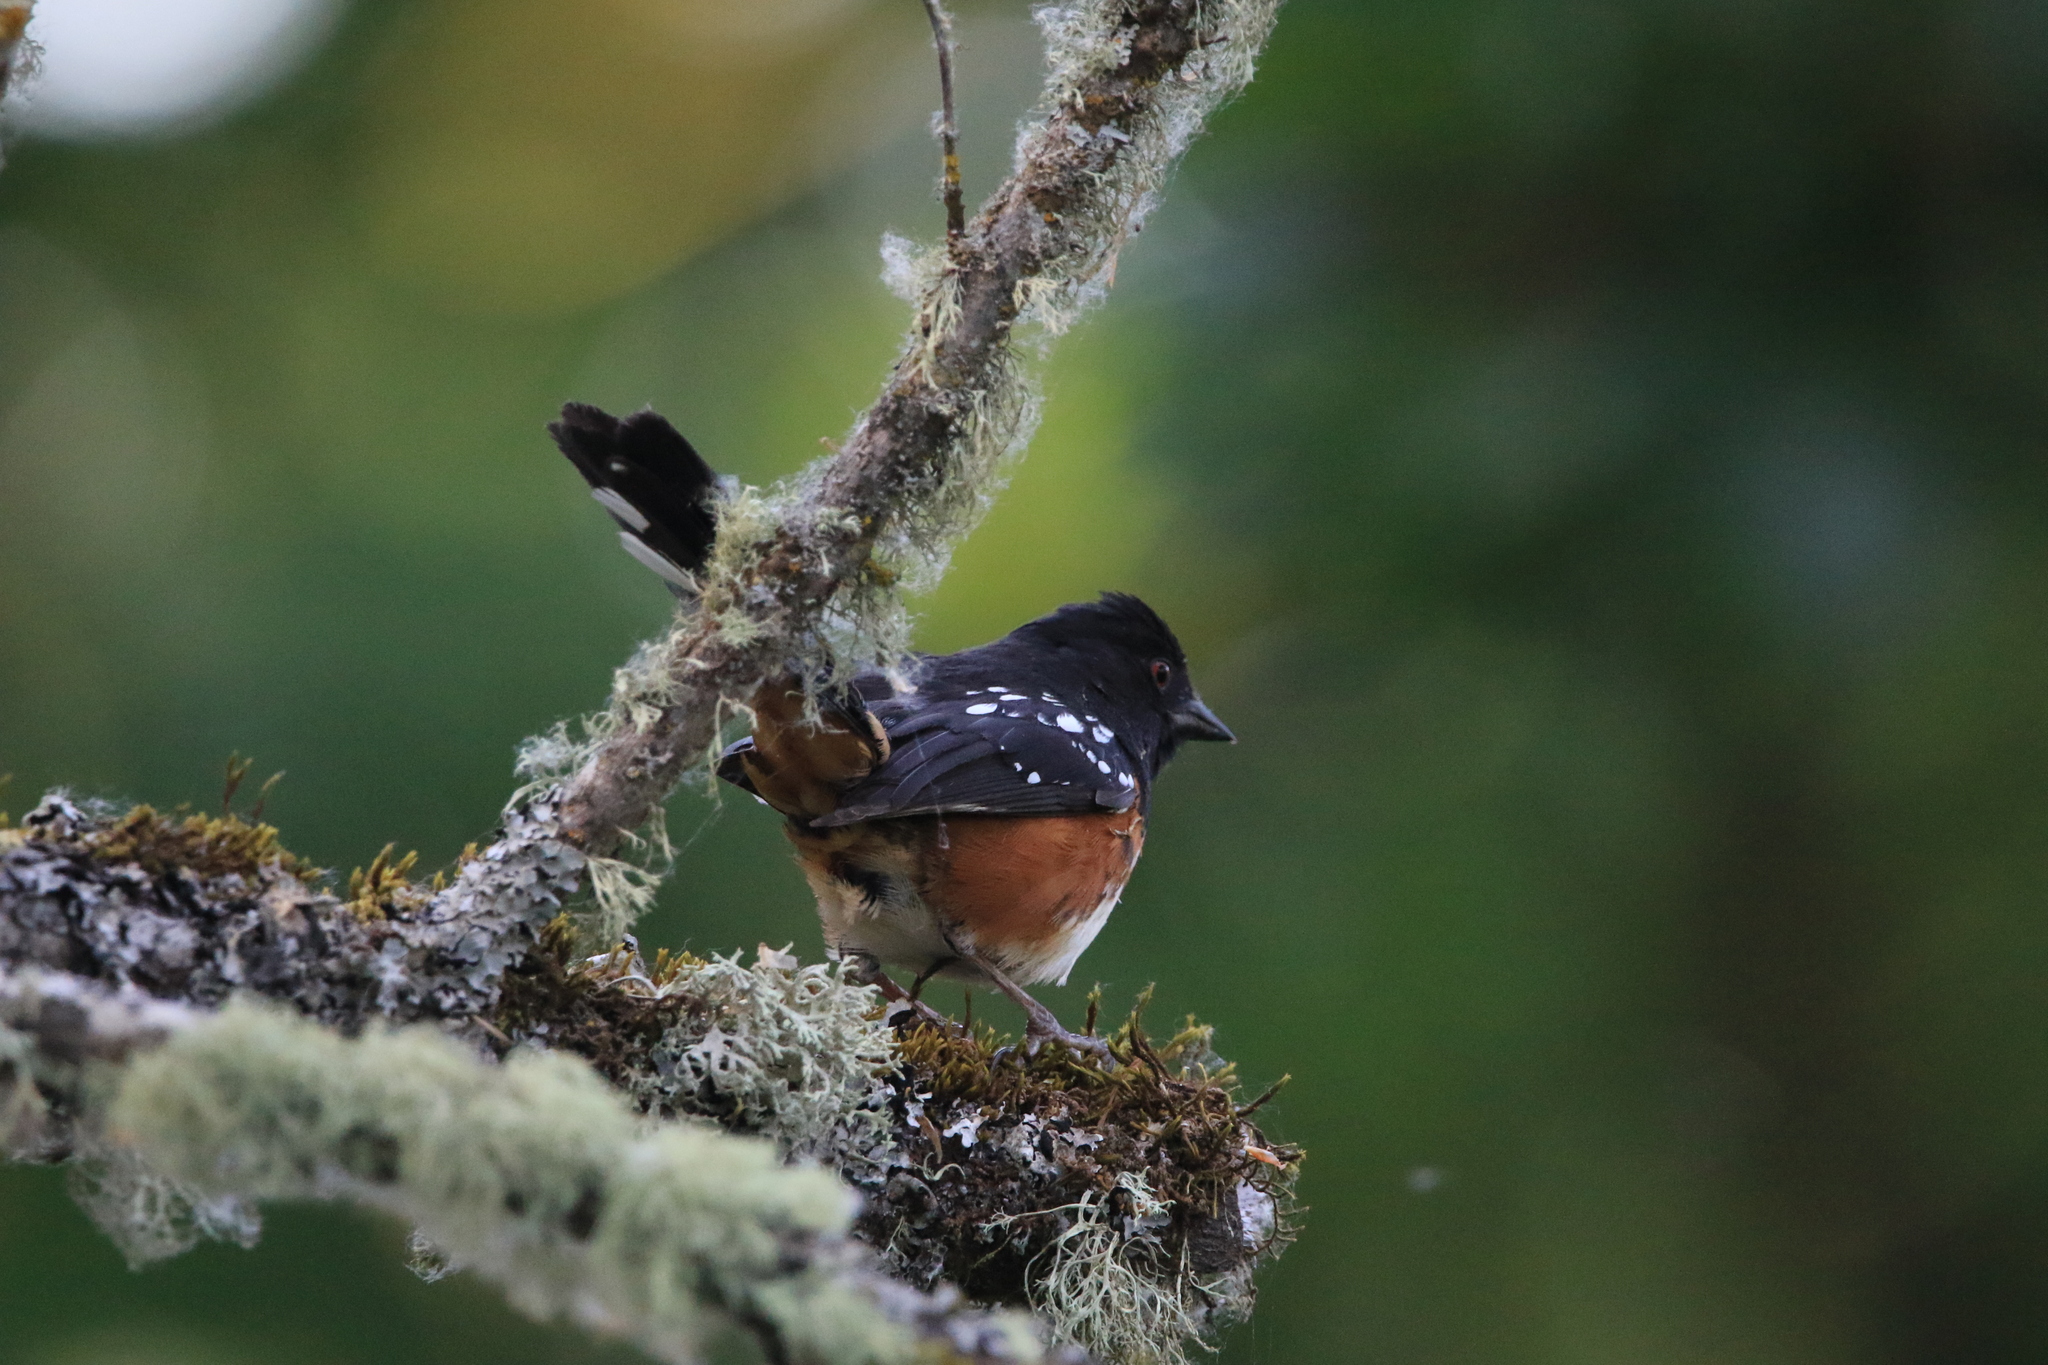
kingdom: Animalia
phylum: Chordata
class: Aves
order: Passeriformes
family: Passerellidae
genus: Pipilo
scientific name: Pipilo maculatus
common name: Spotted towhee
